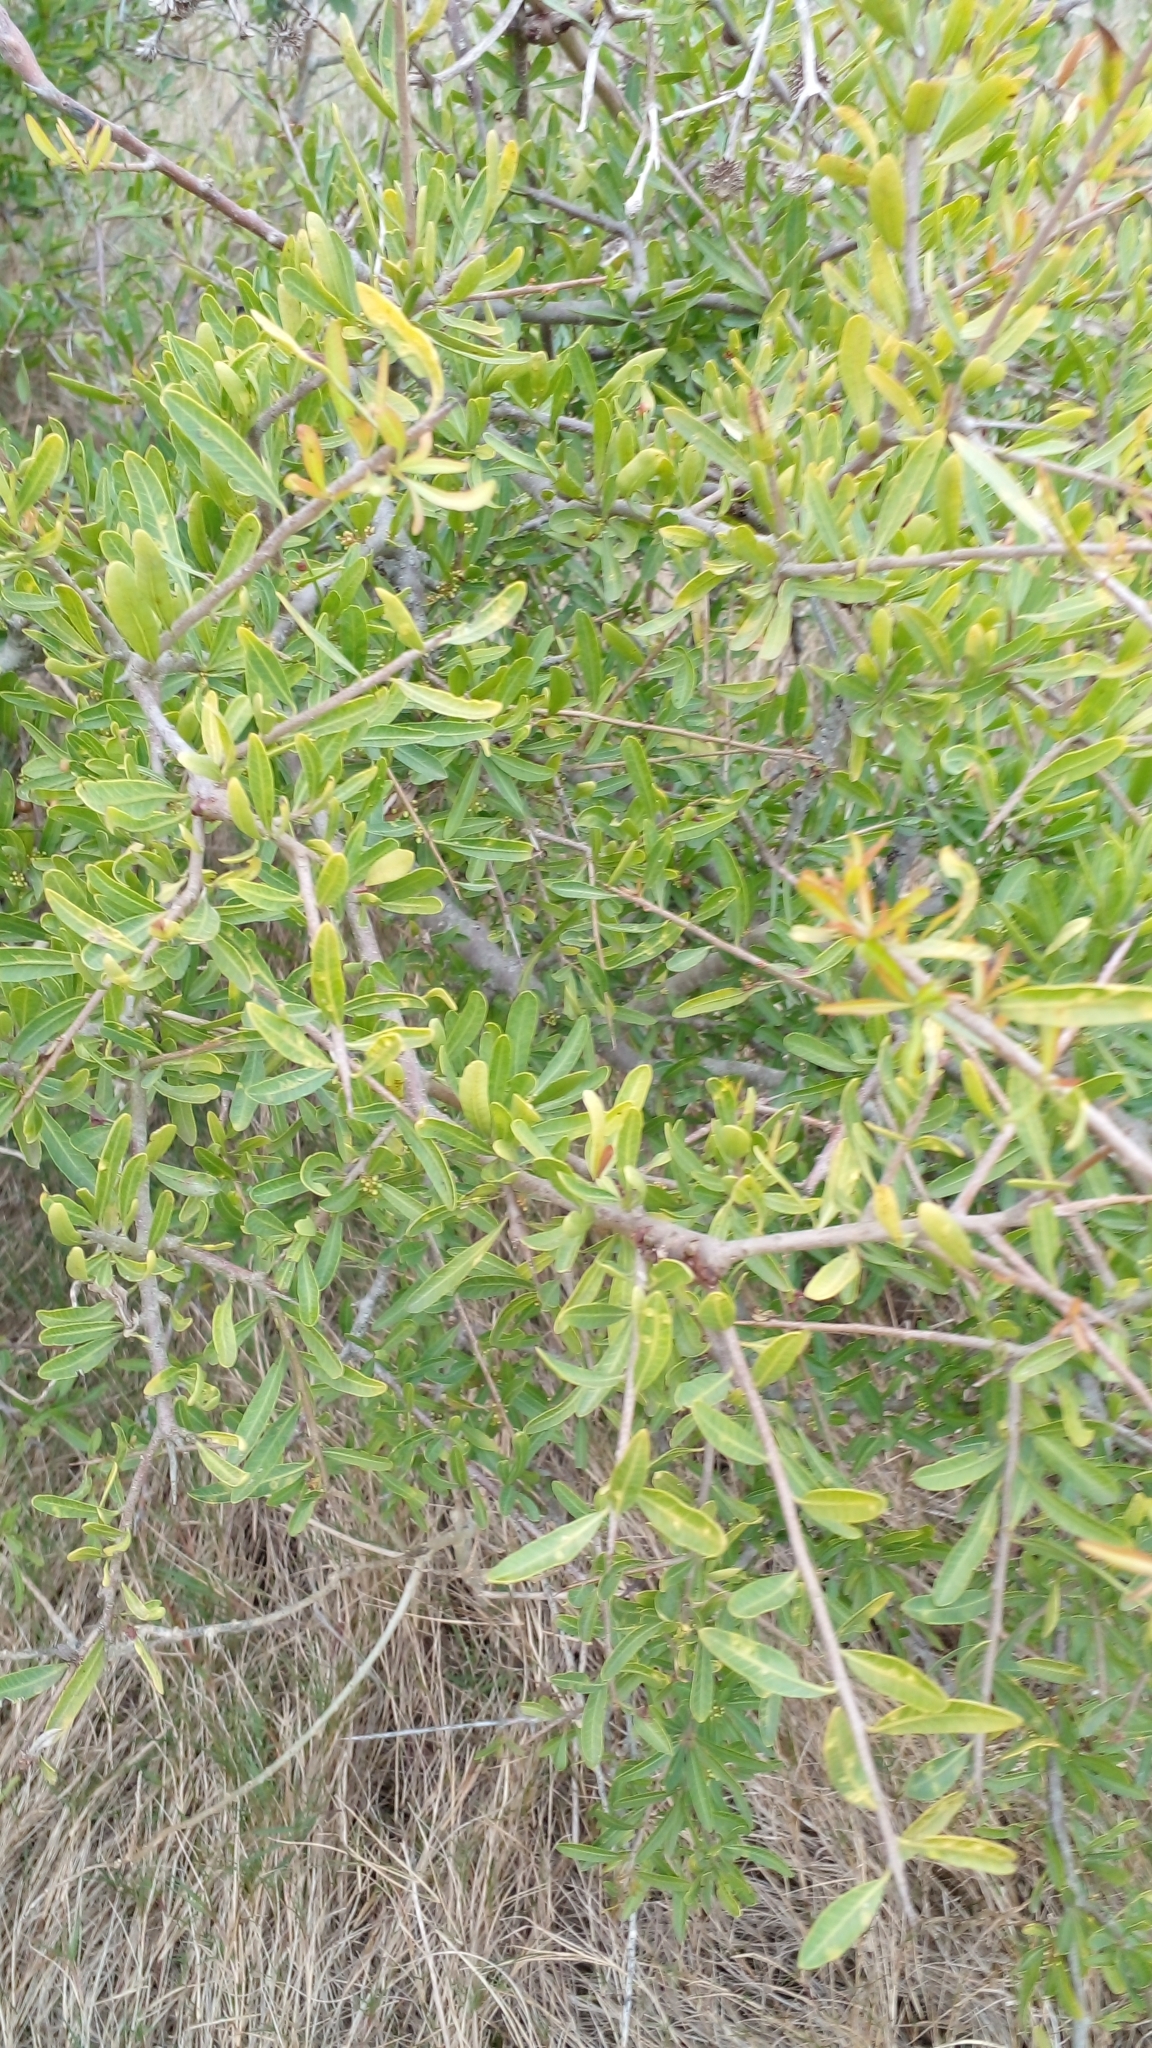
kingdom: Plantae
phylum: Tracheophyta
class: Magnoliopsida
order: Sapindales
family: Anacardiaceae
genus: Schinus
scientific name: Schinus longifolia
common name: Longleaf peppertree
